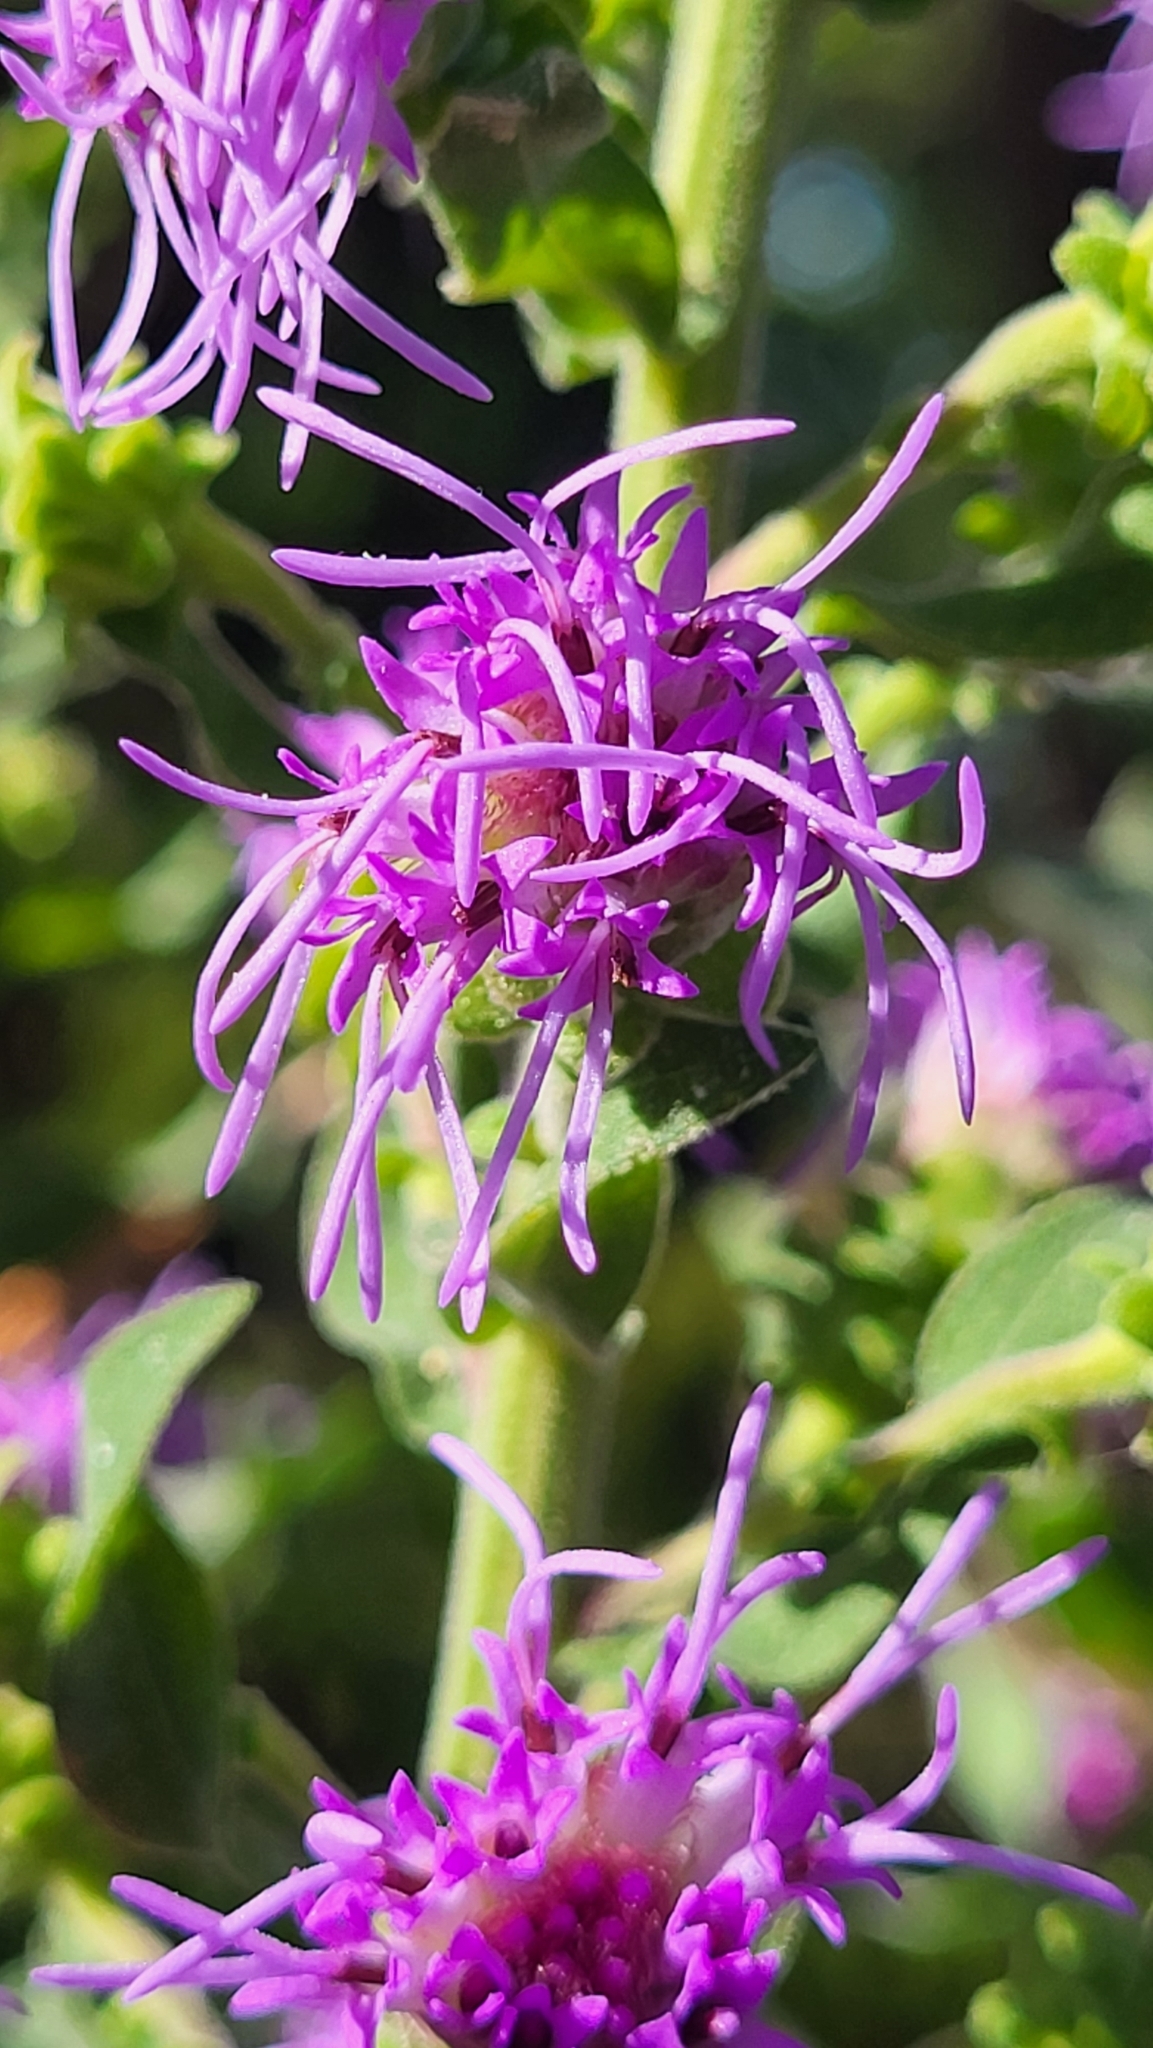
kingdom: Plantae
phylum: Tracheophyta
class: Magnoliopsida
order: Asterales
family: Asteraceae
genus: Liatris
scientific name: Liatris squarrulosa
